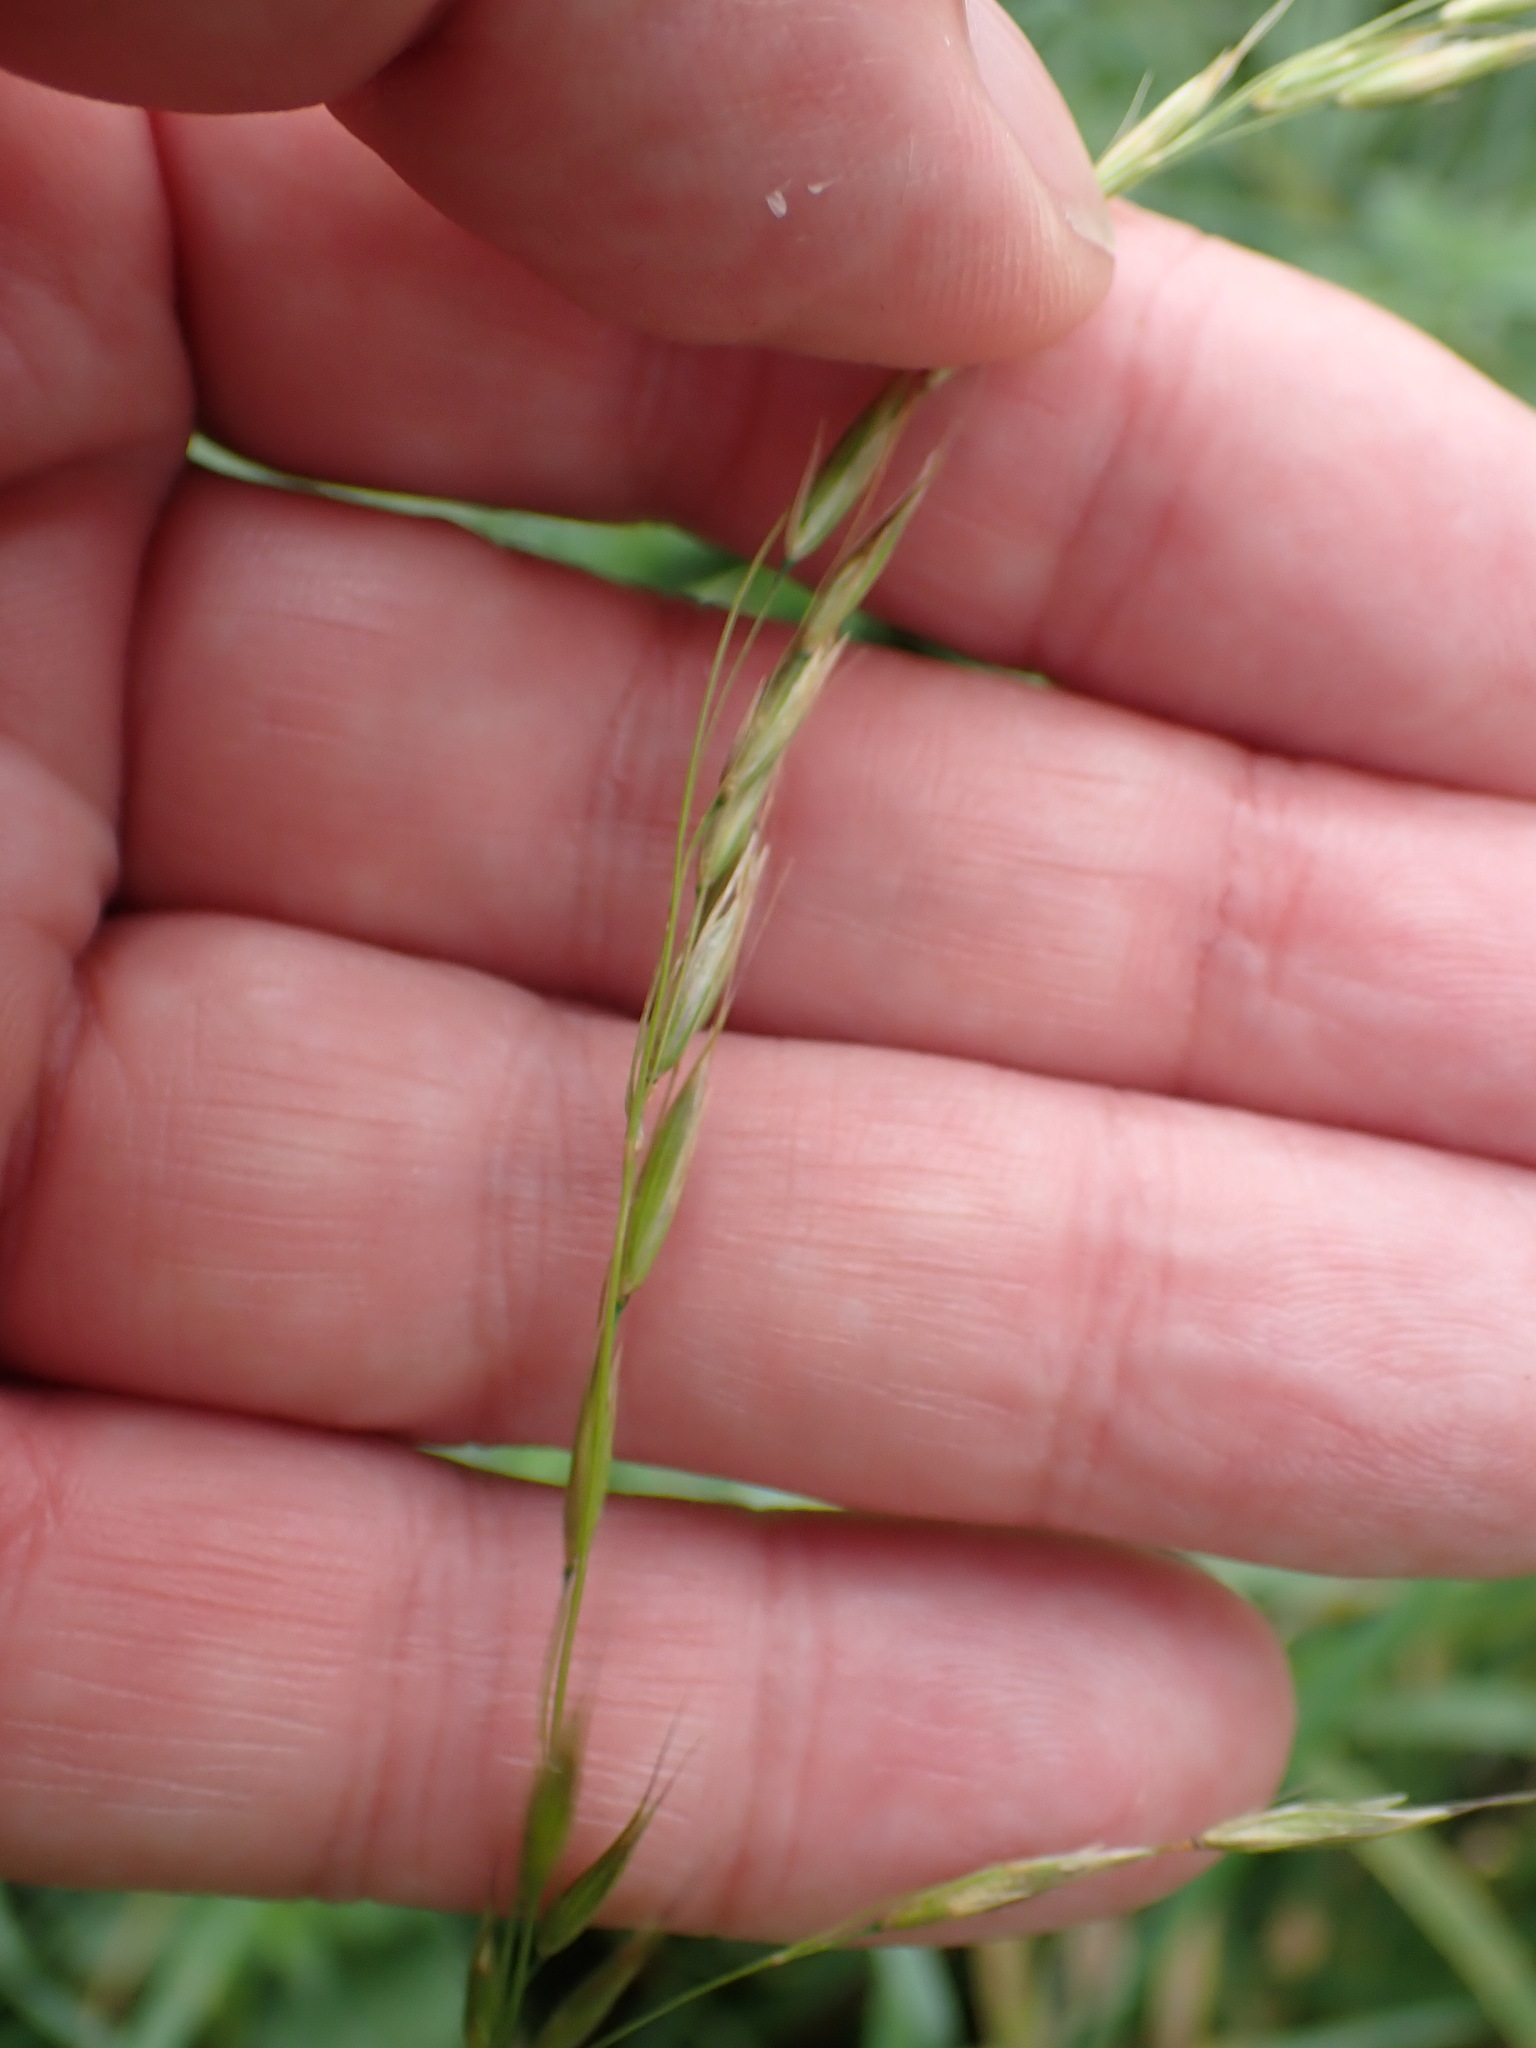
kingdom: Plantae
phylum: Tracheophyta
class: Liliopsida
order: Poales
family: Poaceae
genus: Arrhenatherum
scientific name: Arrhenatherum elatius
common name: Tall oatgrass
